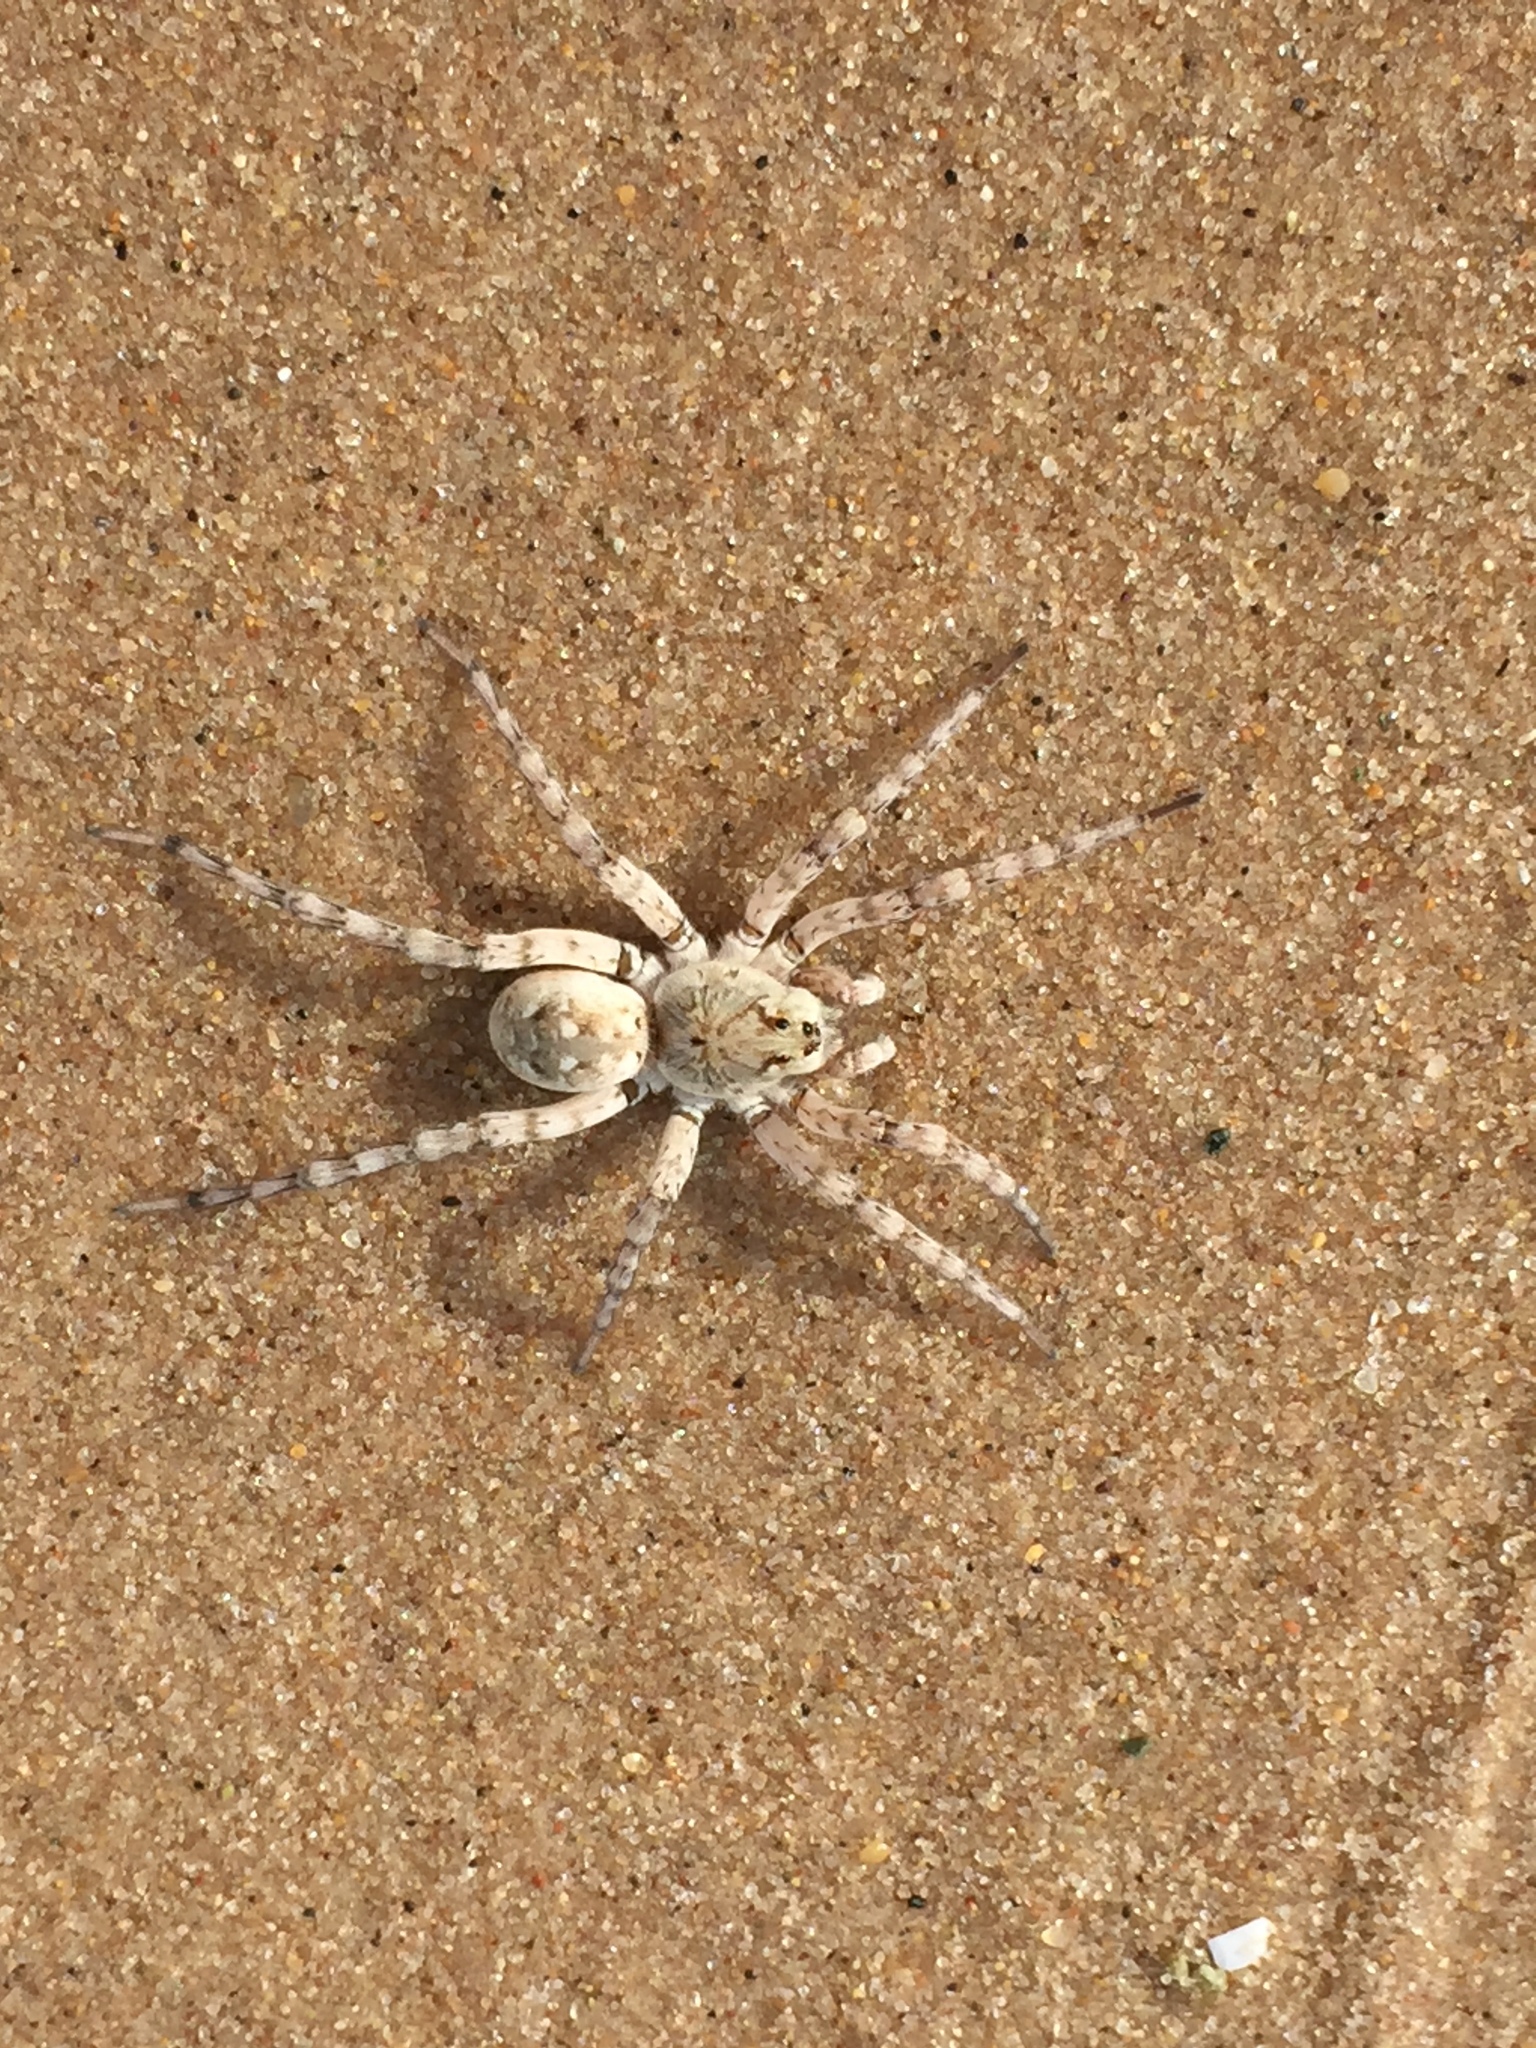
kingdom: Animalia
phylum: Arthropoda
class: Arachnida
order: Araneae
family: Lycosidae
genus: Arctosa
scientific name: Arctosa littoralis
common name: Wolf spiders
